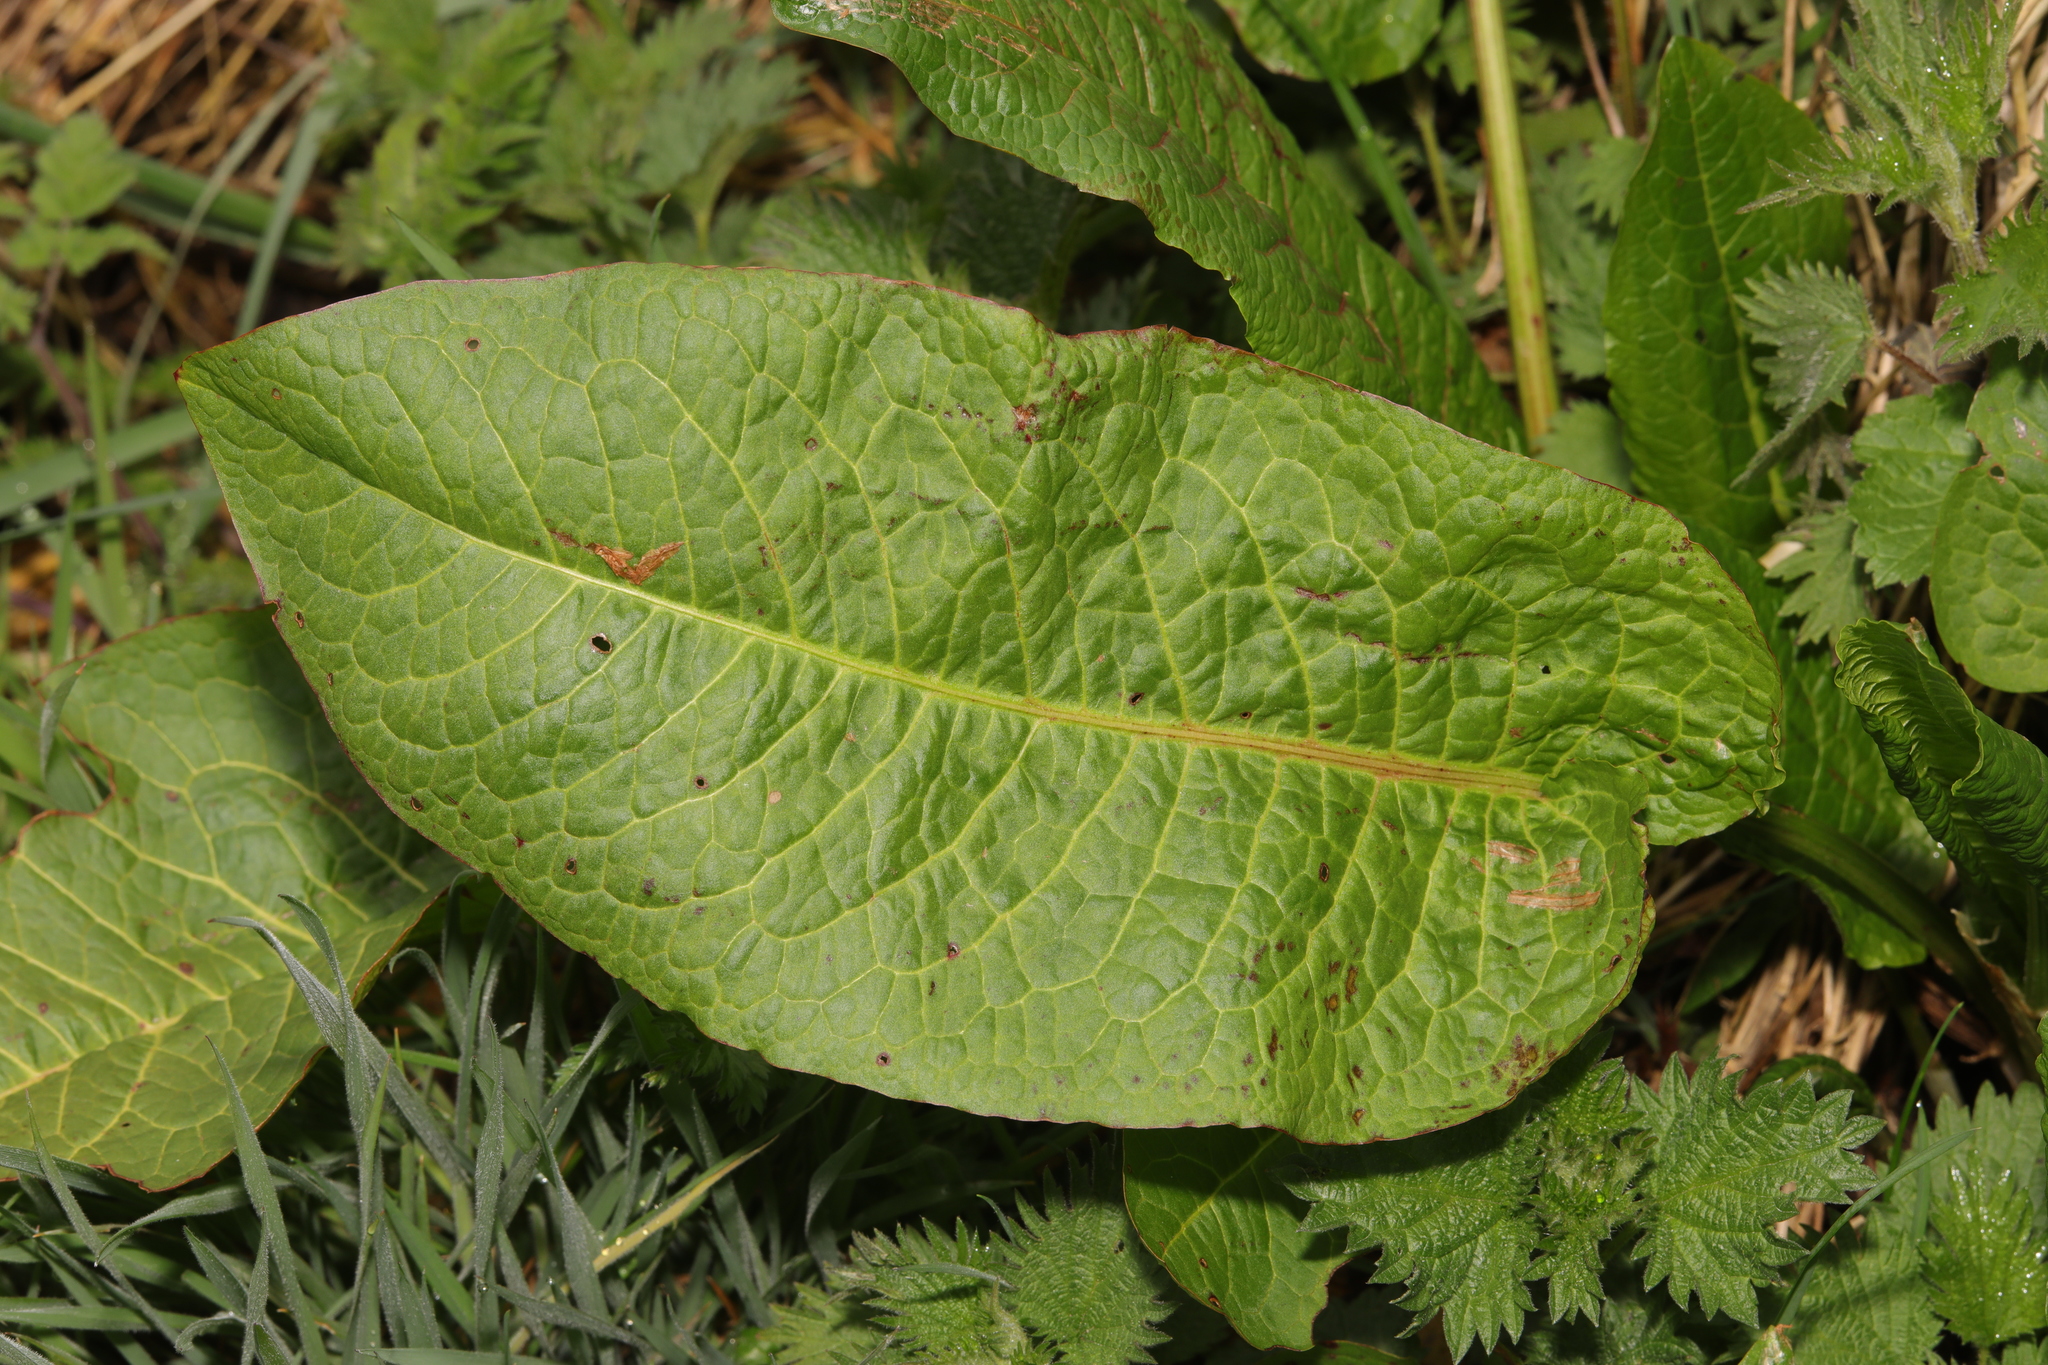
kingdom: Plantae
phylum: Tracheophyta
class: Magnoliopsida
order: Caryophyllales
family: Polygonaceae
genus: Rumex
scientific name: Rumex obtusifolius
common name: Bitter dock
